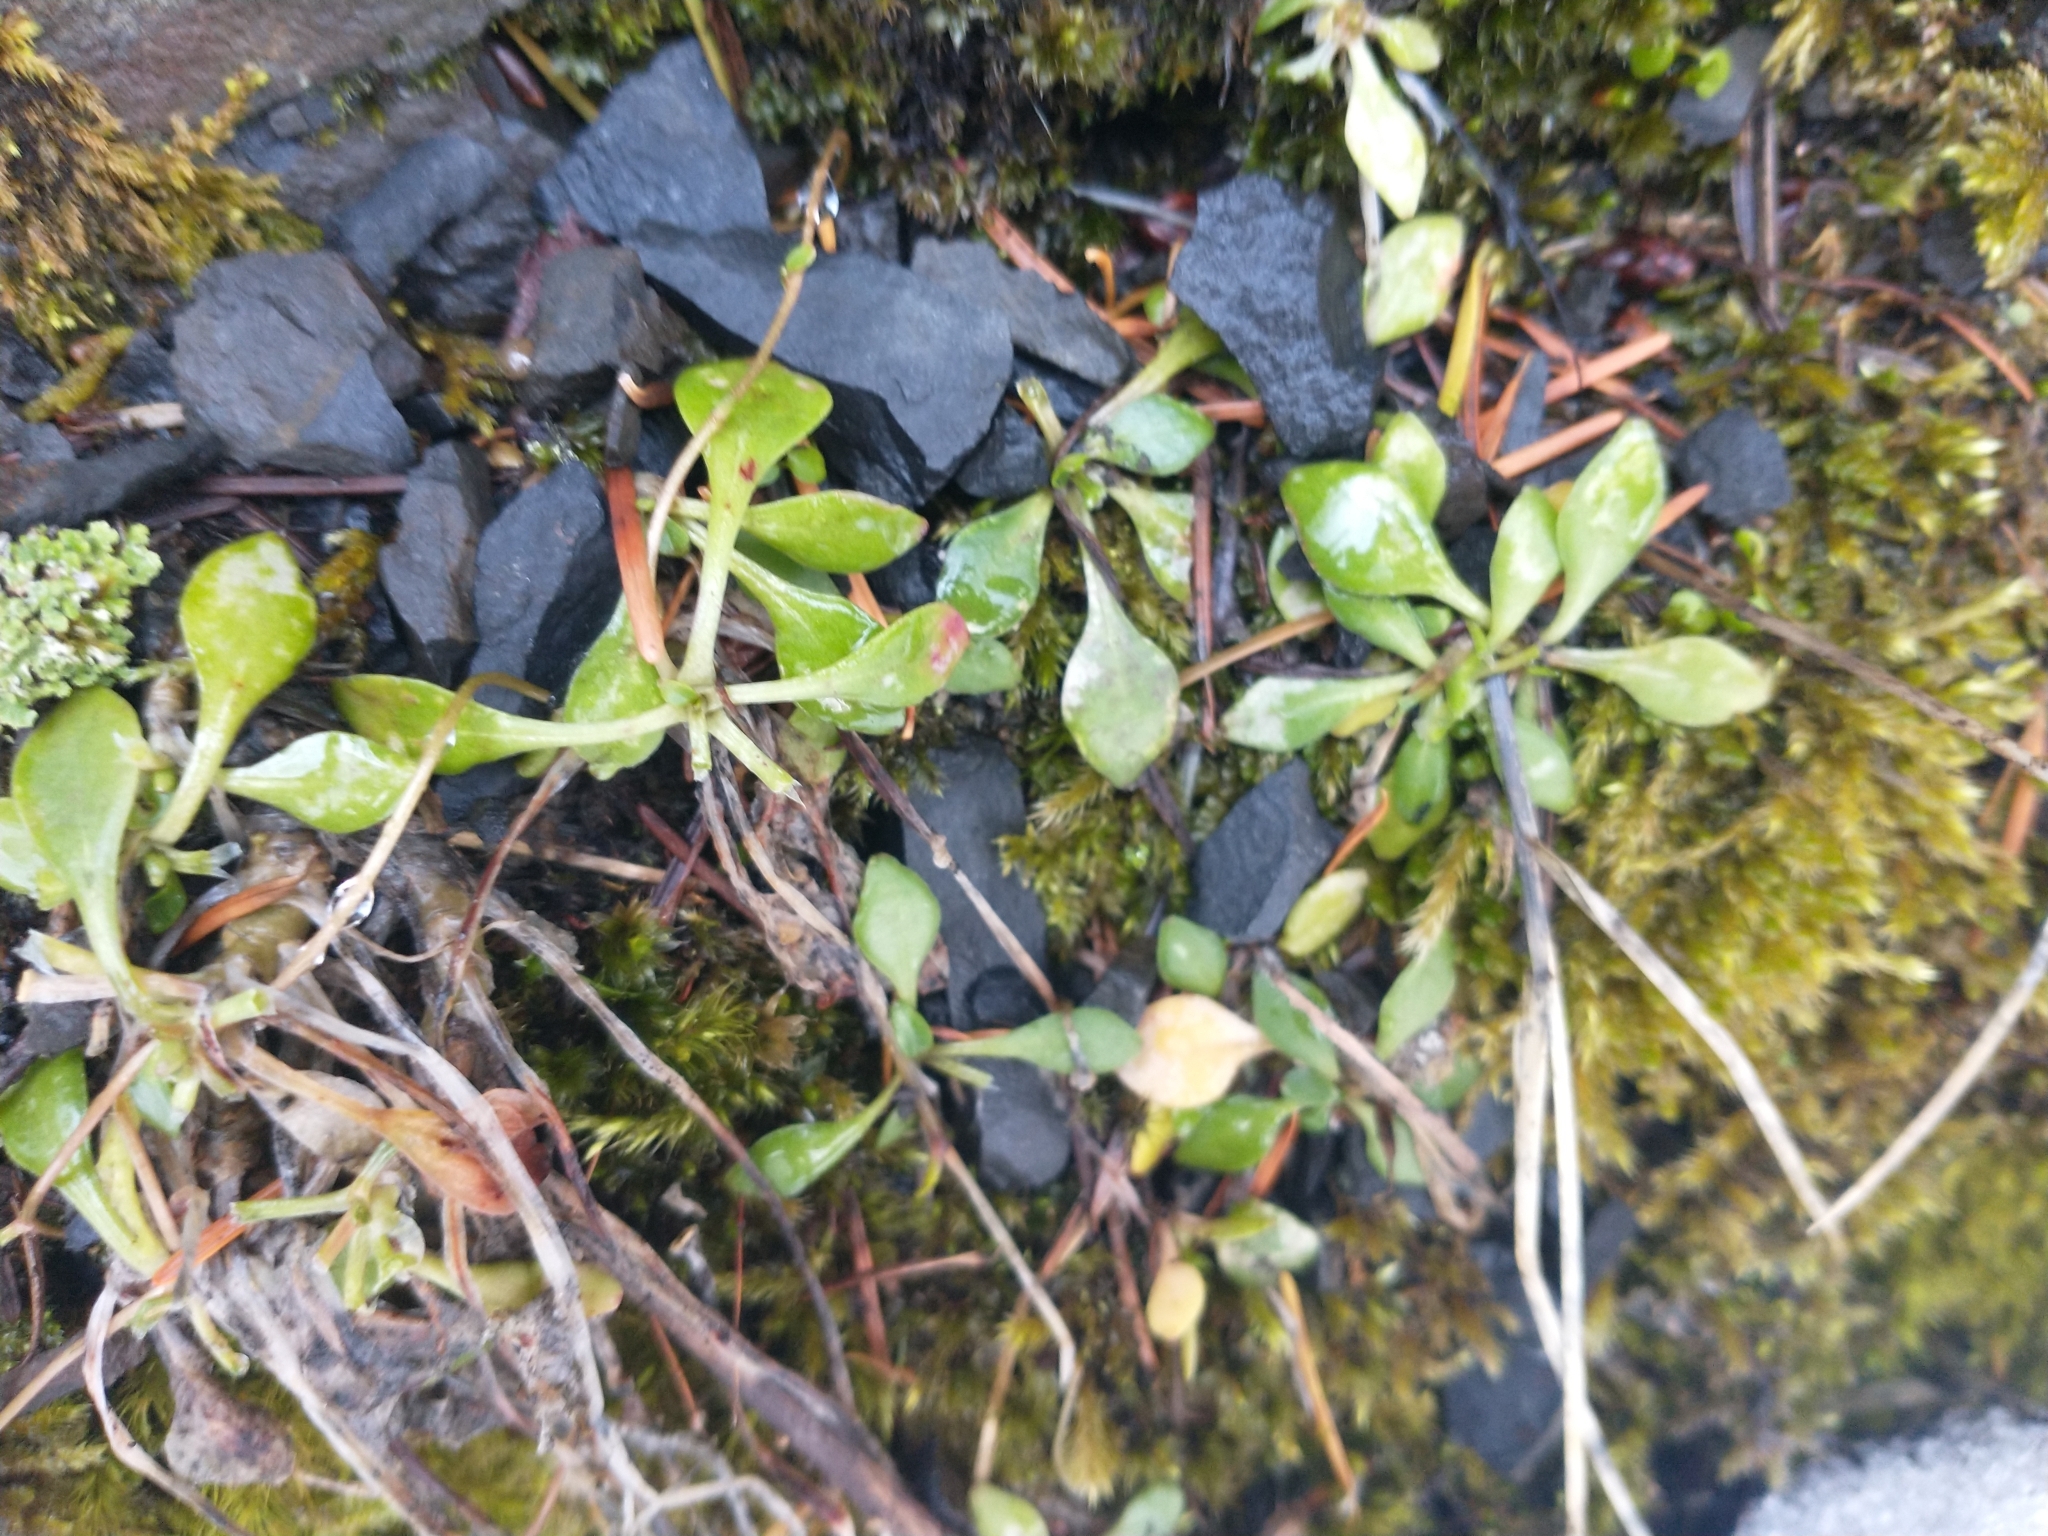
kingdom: Plantae
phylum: Tracheophyta
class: Magnoliopsida
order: Caryophyllales
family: Montiaceae
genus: Montia
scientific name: Montia parvifolia
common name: Small-leaved blinks
